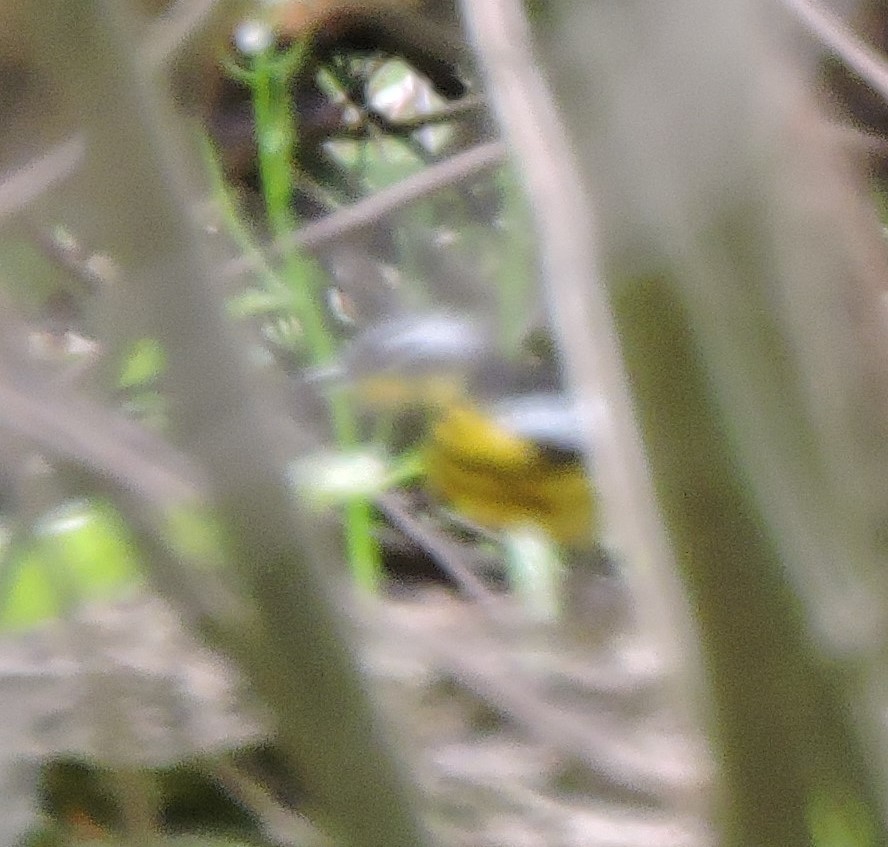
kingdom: Animalia
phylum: Chordata
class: Aves
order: Passeriformes
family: Parulidae
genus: Setophaga
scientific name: Setophaga magnolia
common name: Magnolia warbler
